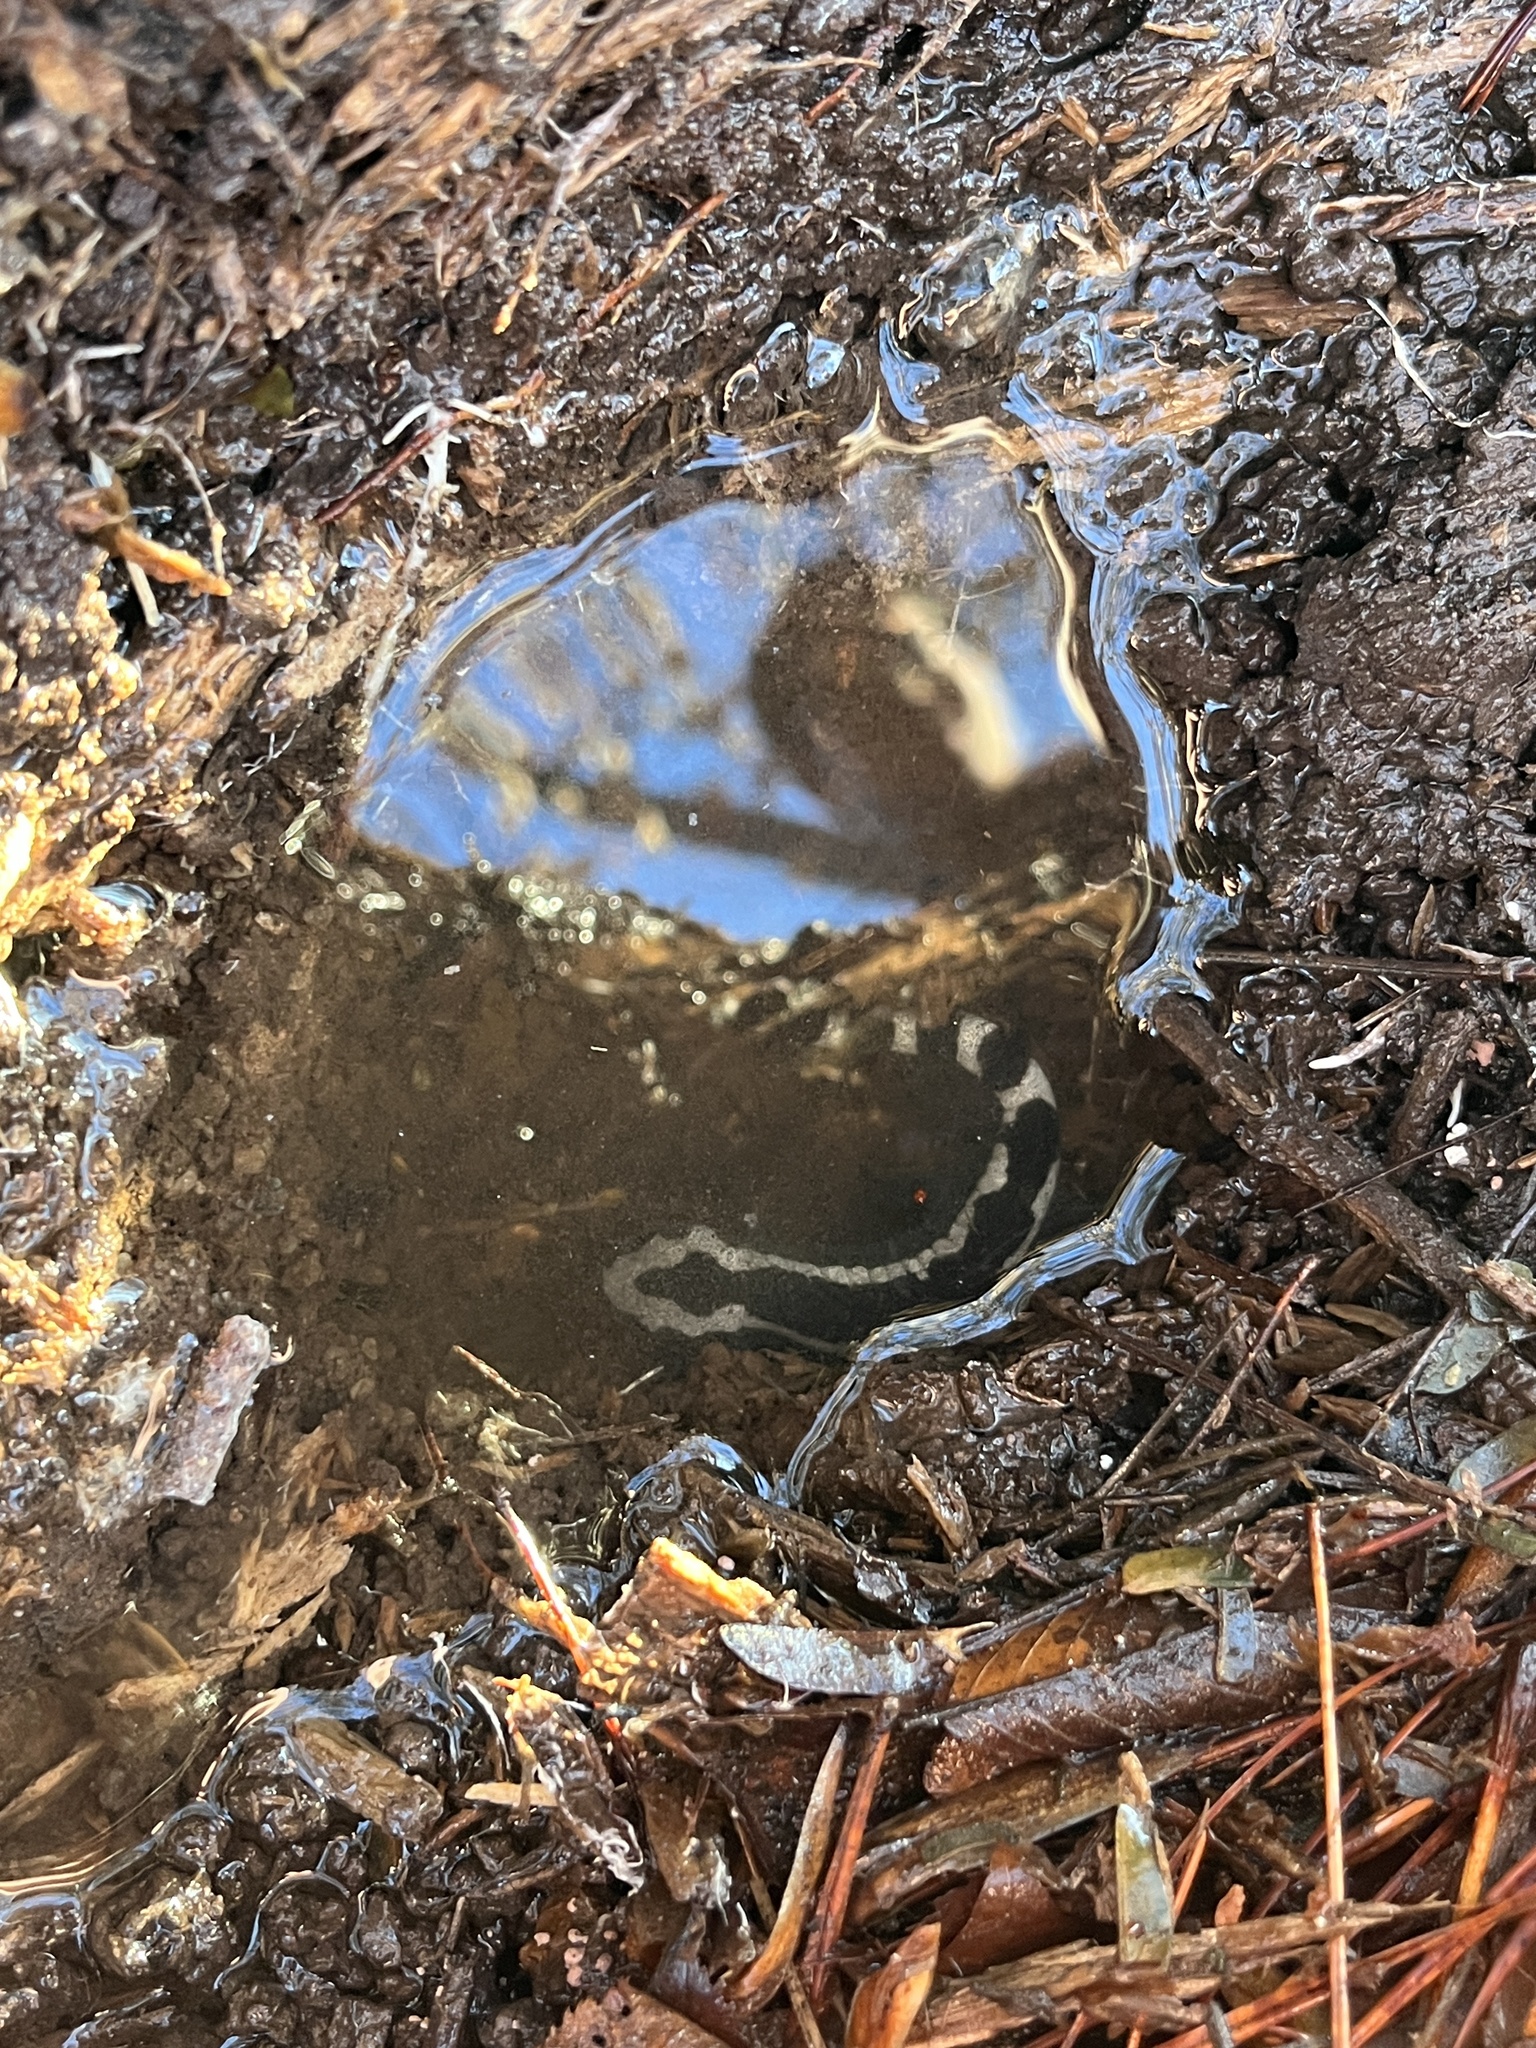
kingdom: Animalia
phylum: Chordata
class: Amphibia
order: Caudata
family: Ambystomatidae
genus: Ambystoma
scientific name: Ambystoma opacum
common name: Marbled salamander
